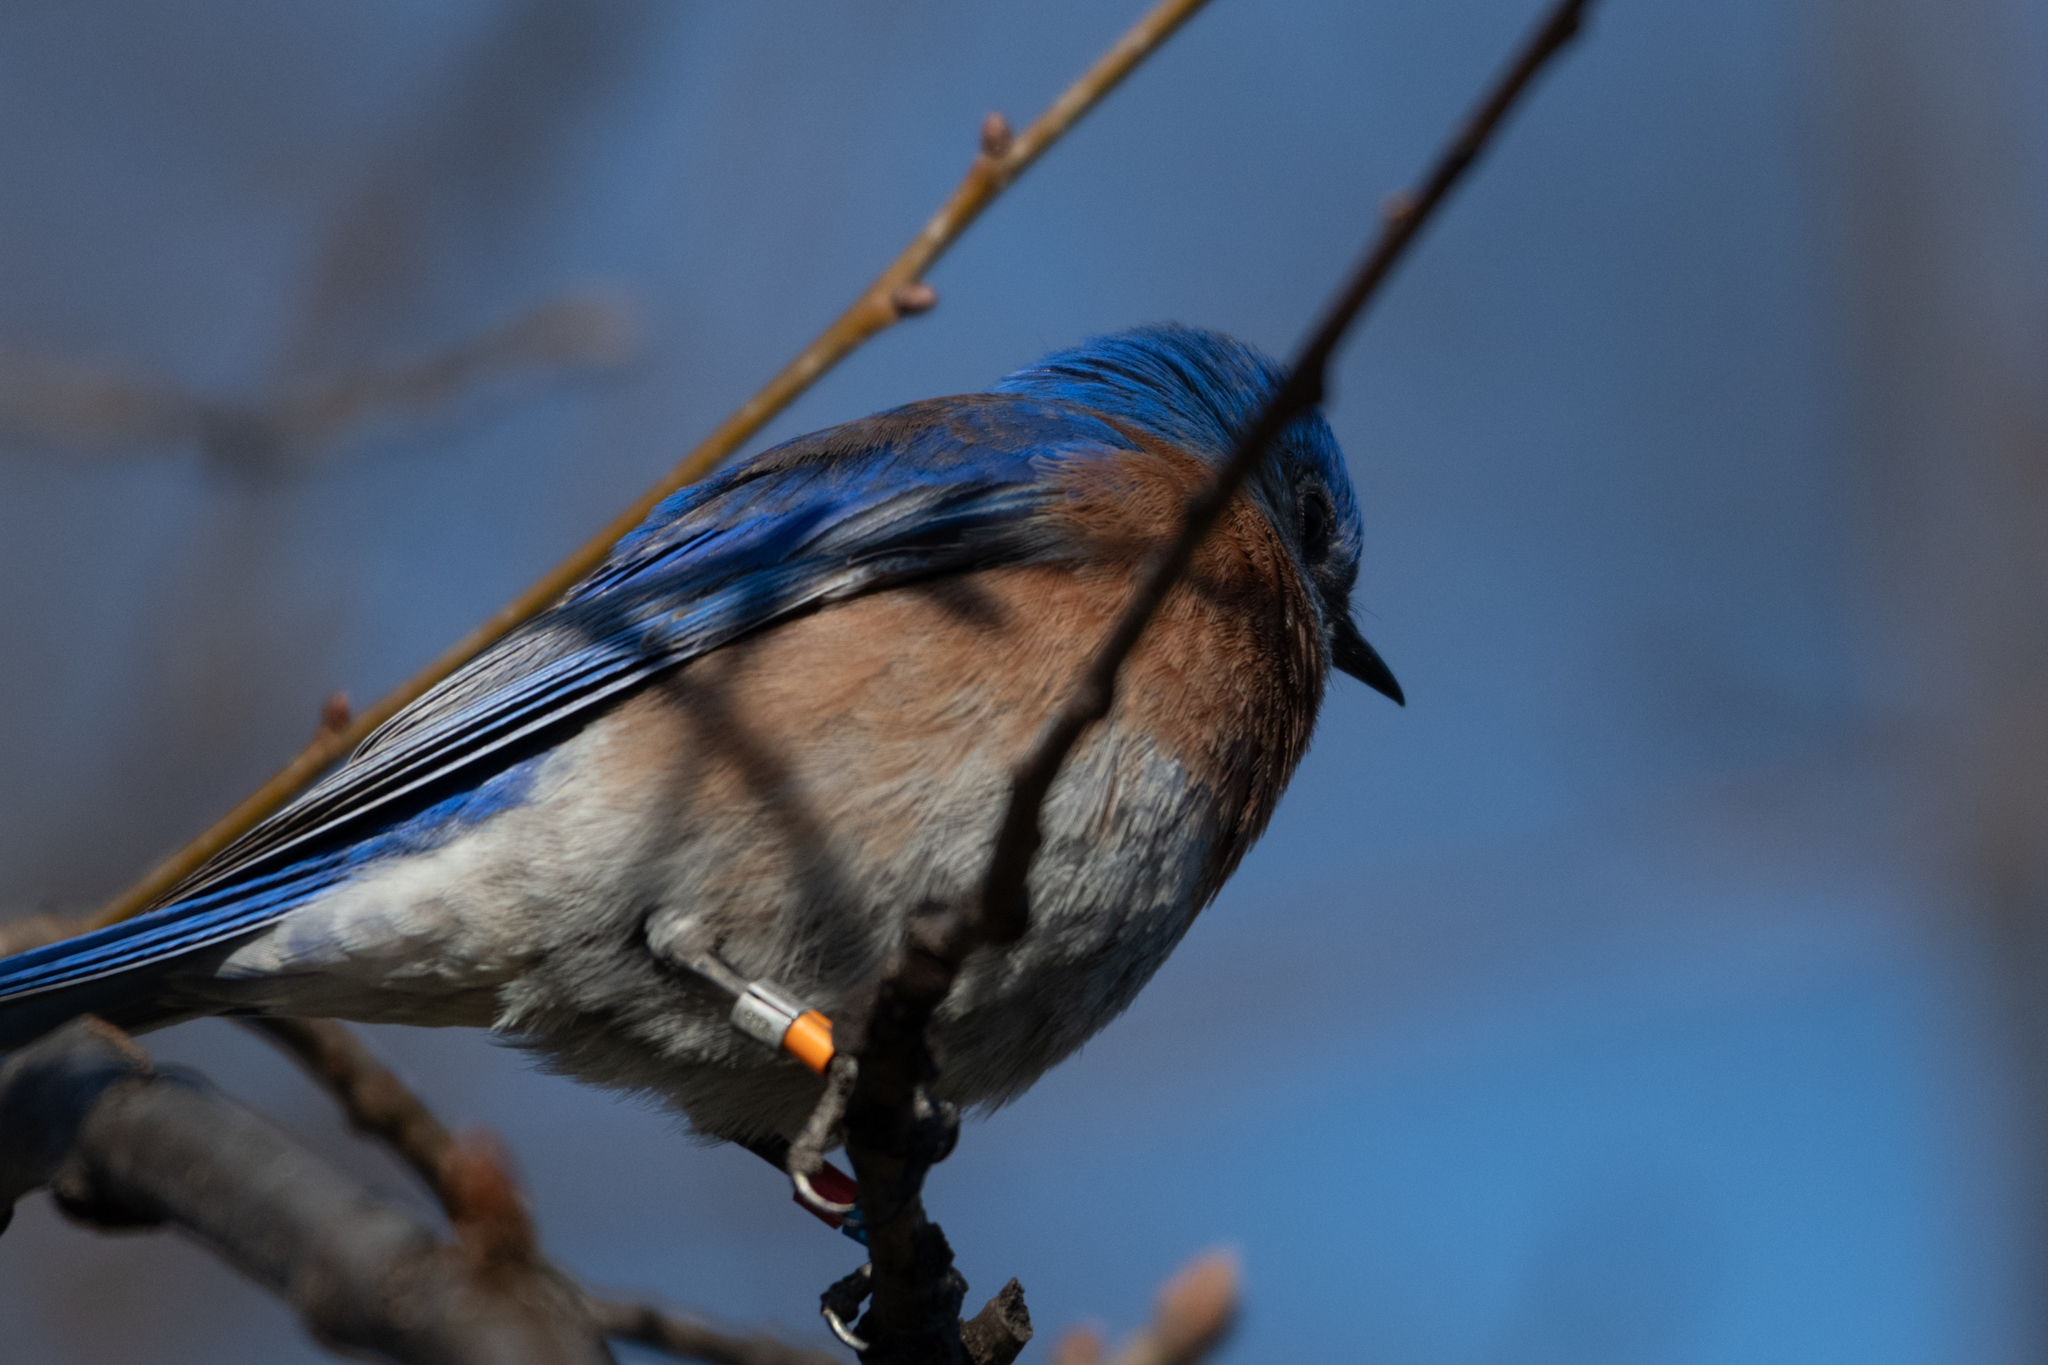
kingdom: Animalia
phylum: Chordata
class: Aves
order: Passeriformes
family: Turdidae
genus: Sialia
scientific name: Sialia mexicana
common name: Western bluebird
